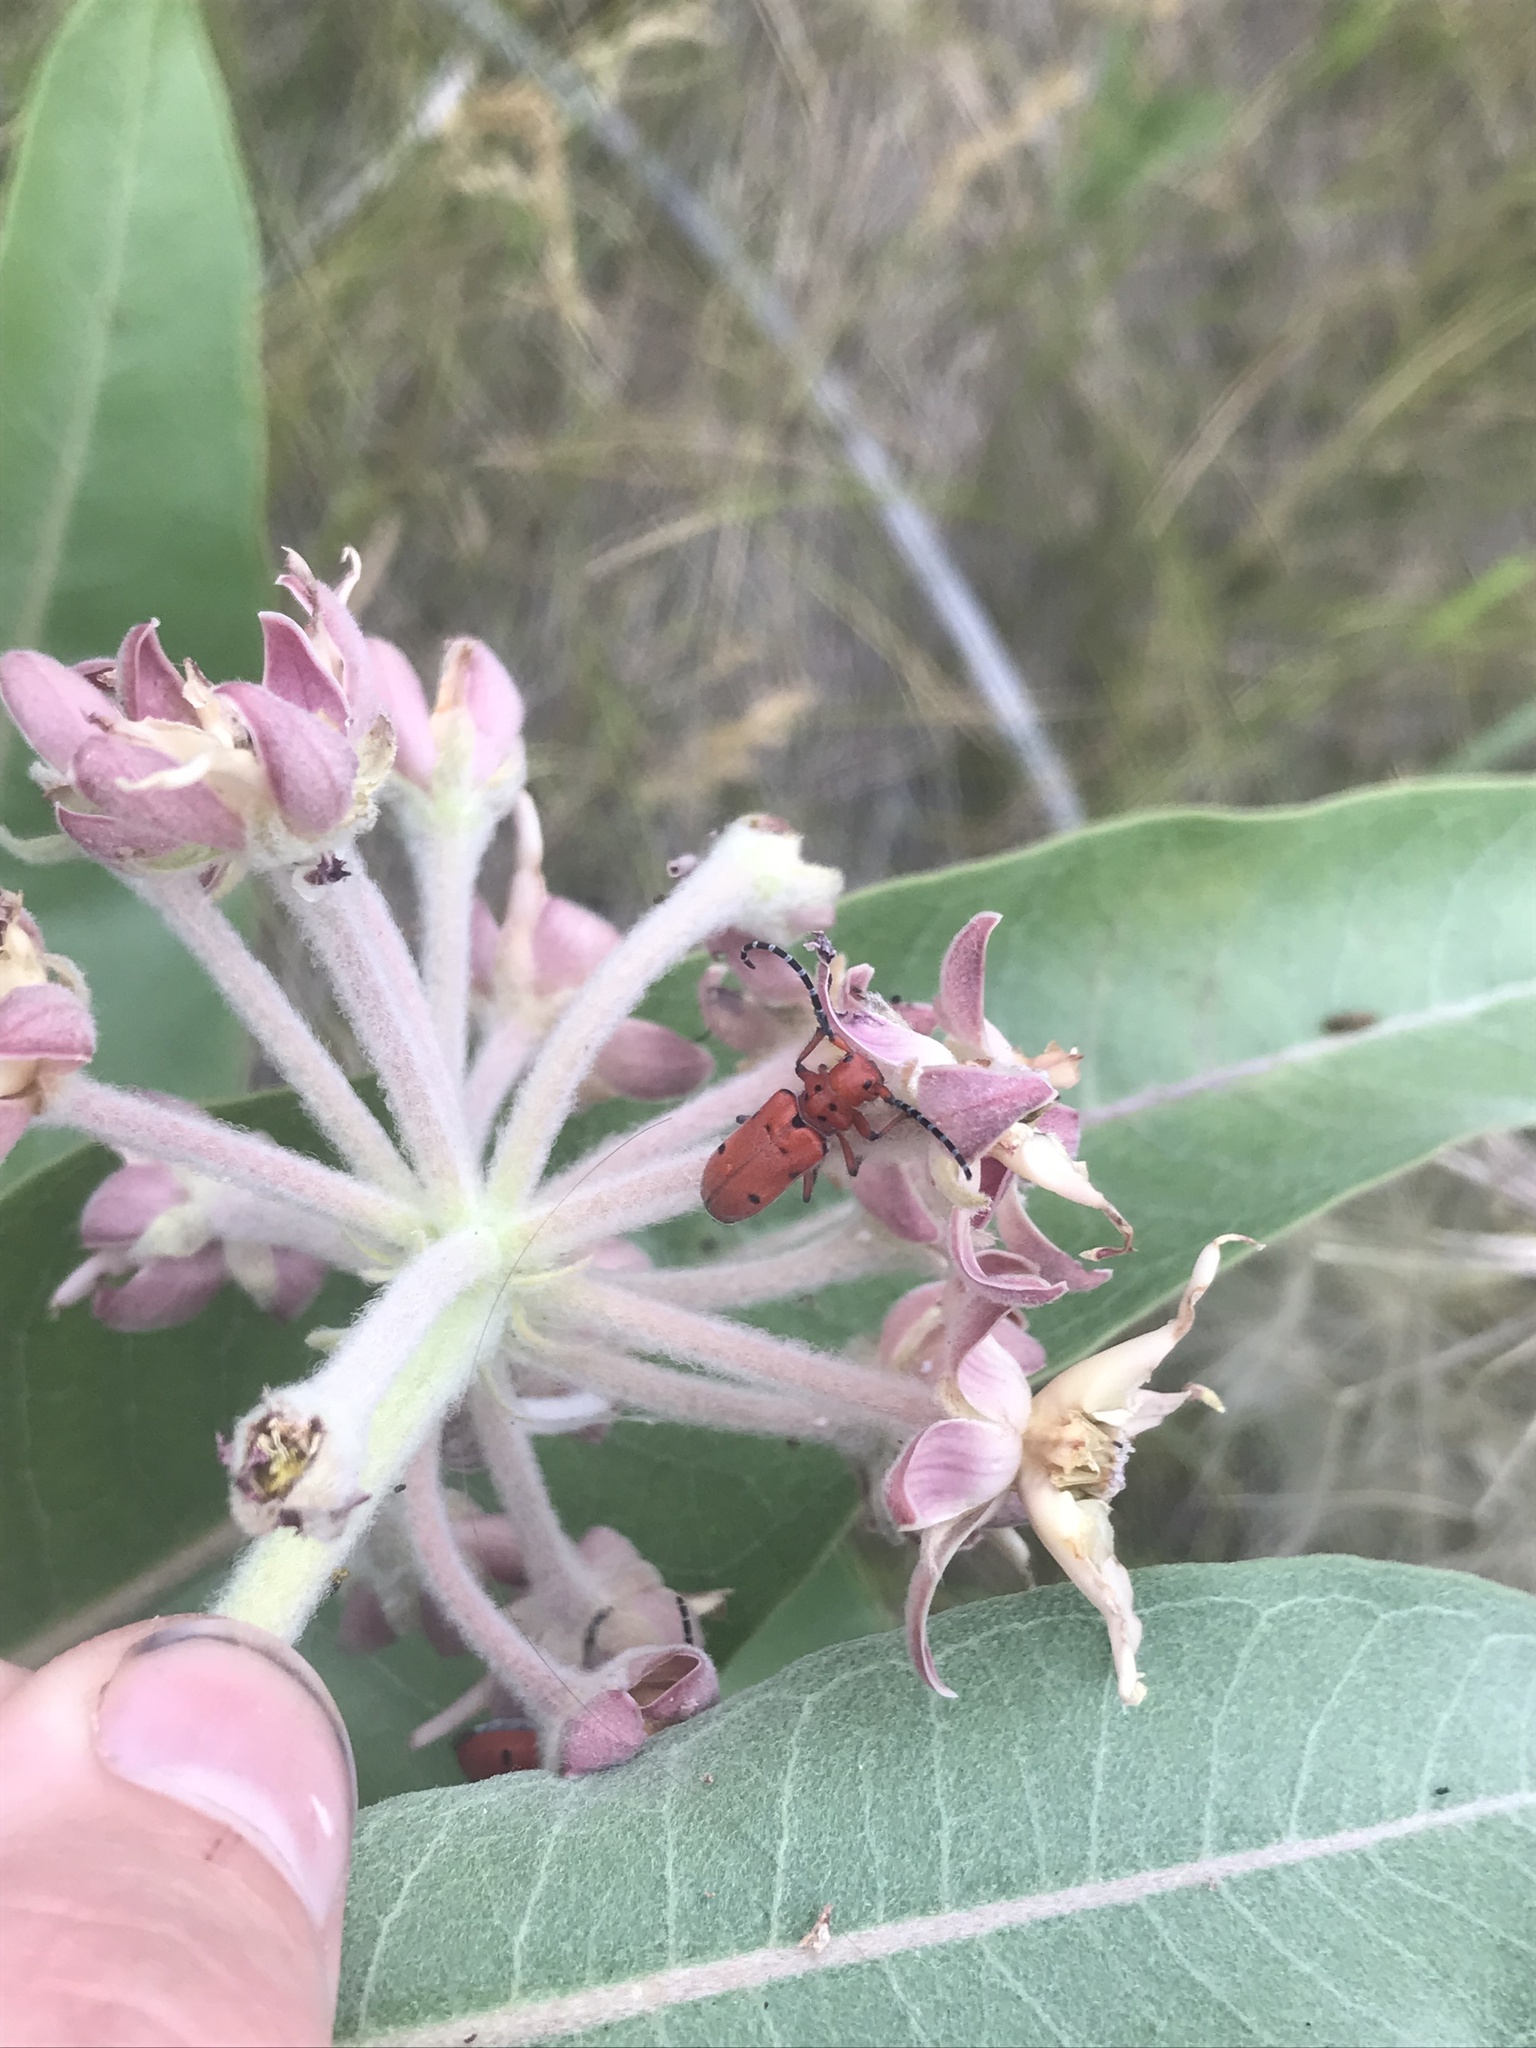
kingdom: Animalia
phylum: Arthropoda
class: Insecta
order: Coleoptera
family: Cerambycidae
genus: Tetraopes
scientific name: Tetraopes femoratus
